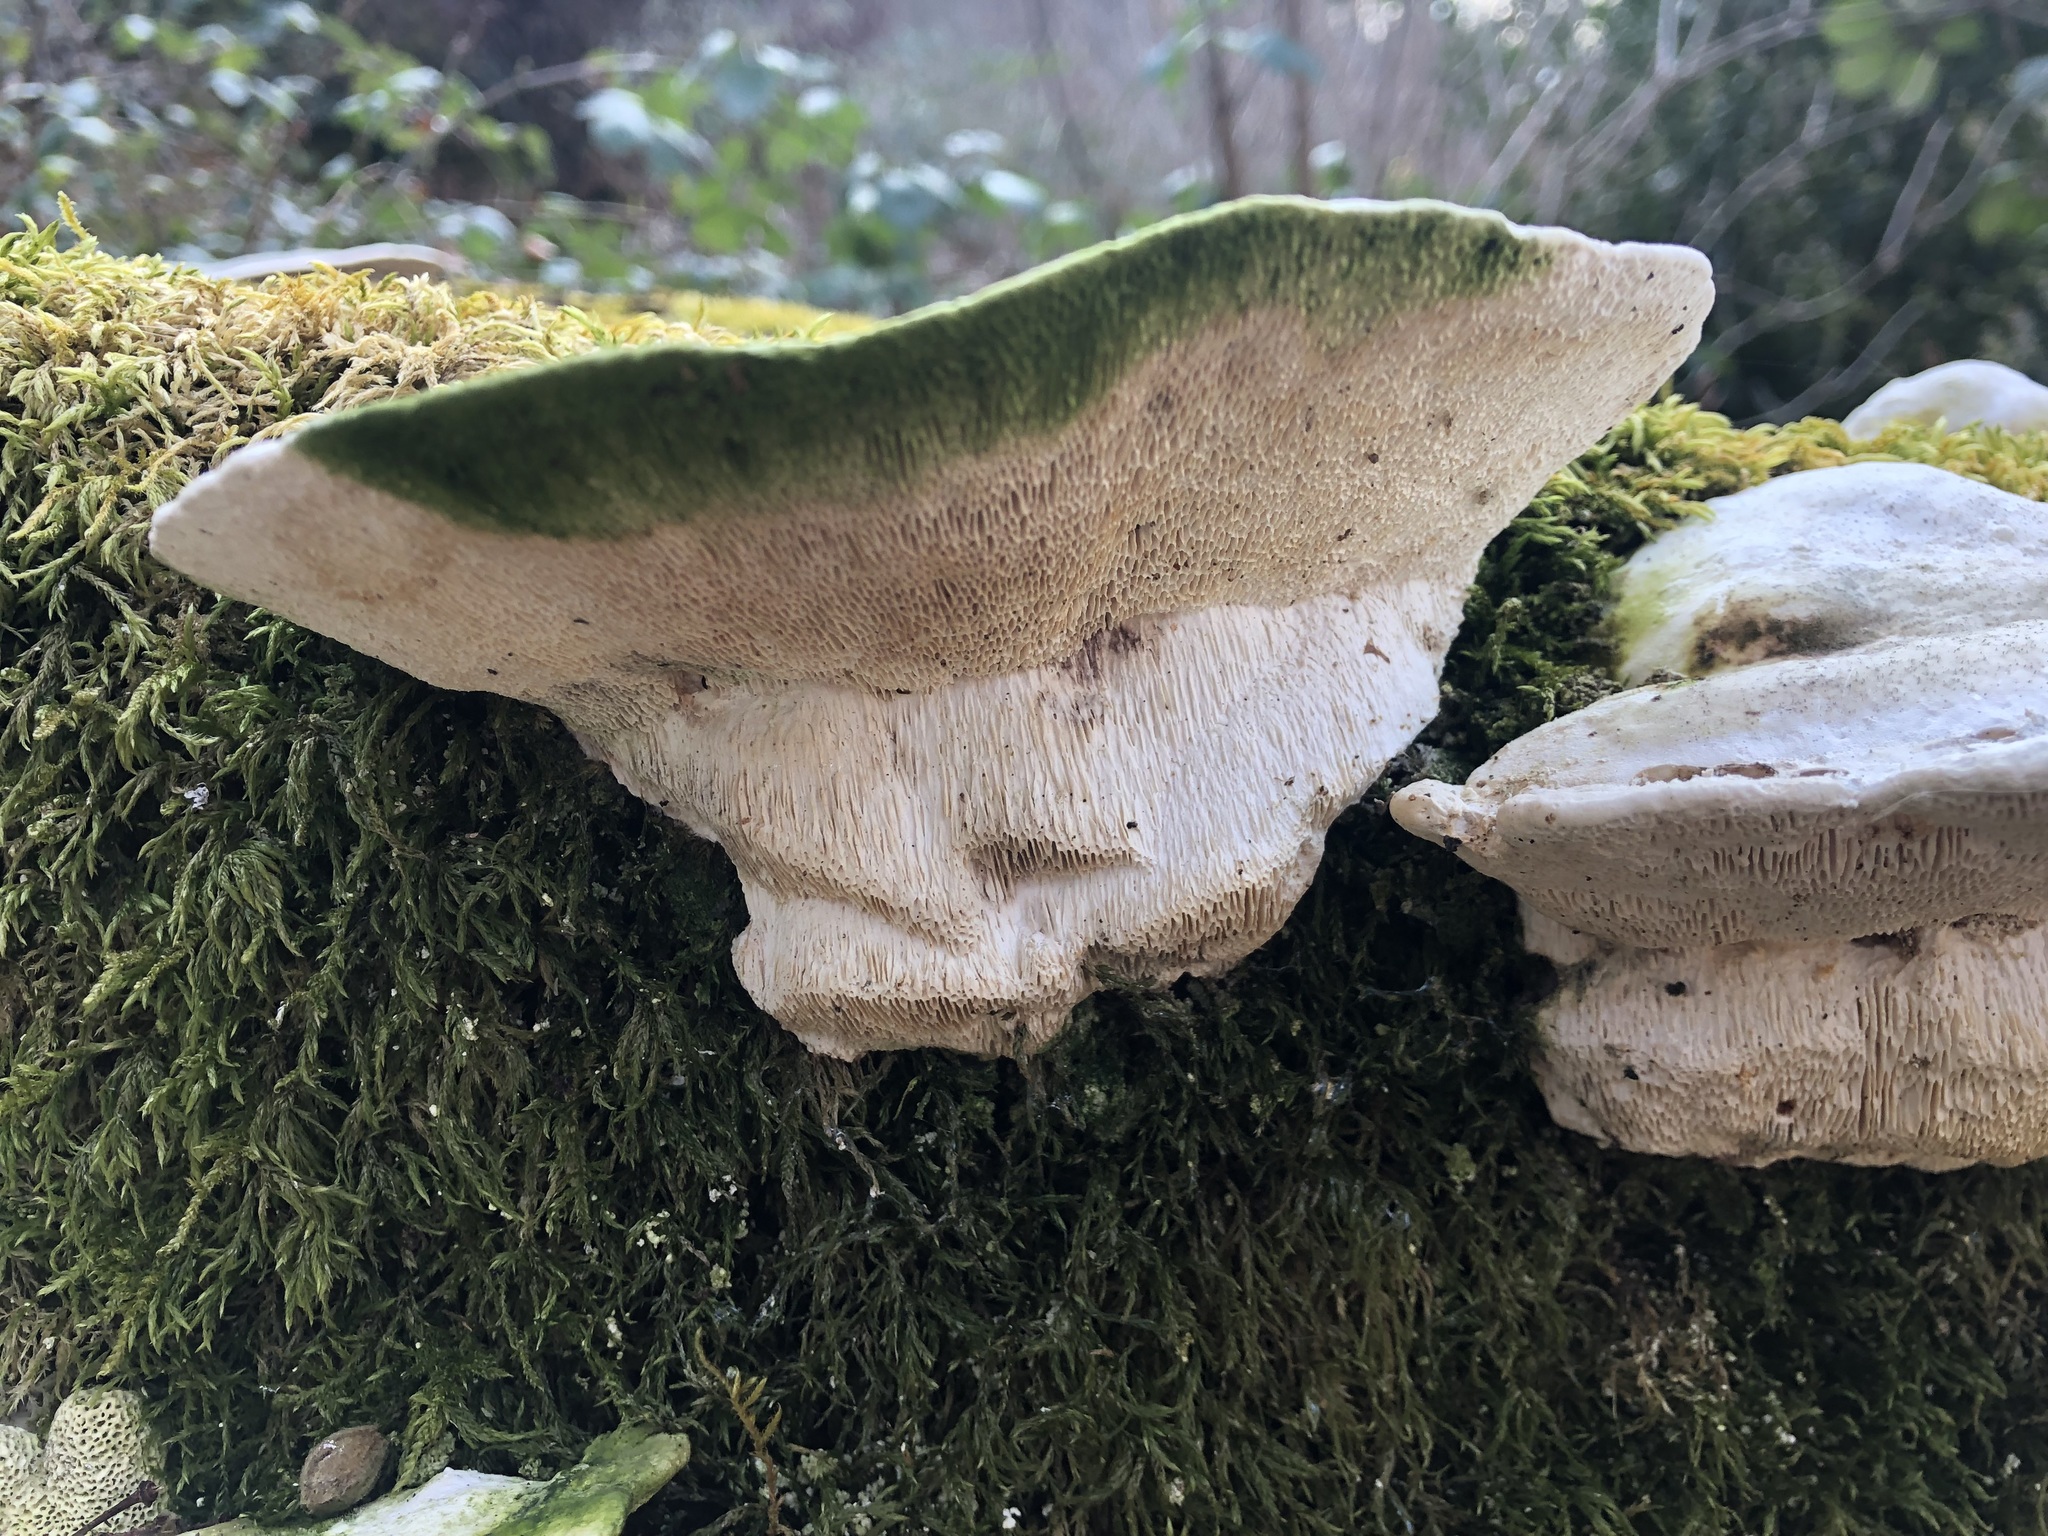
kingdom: Fungi
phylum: Basidiomycota
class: Agaricomycetes
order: Polyporales
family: Polyporaceae
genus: Trametes
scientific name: Trametes gibbosa
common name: Lumpy bracket
